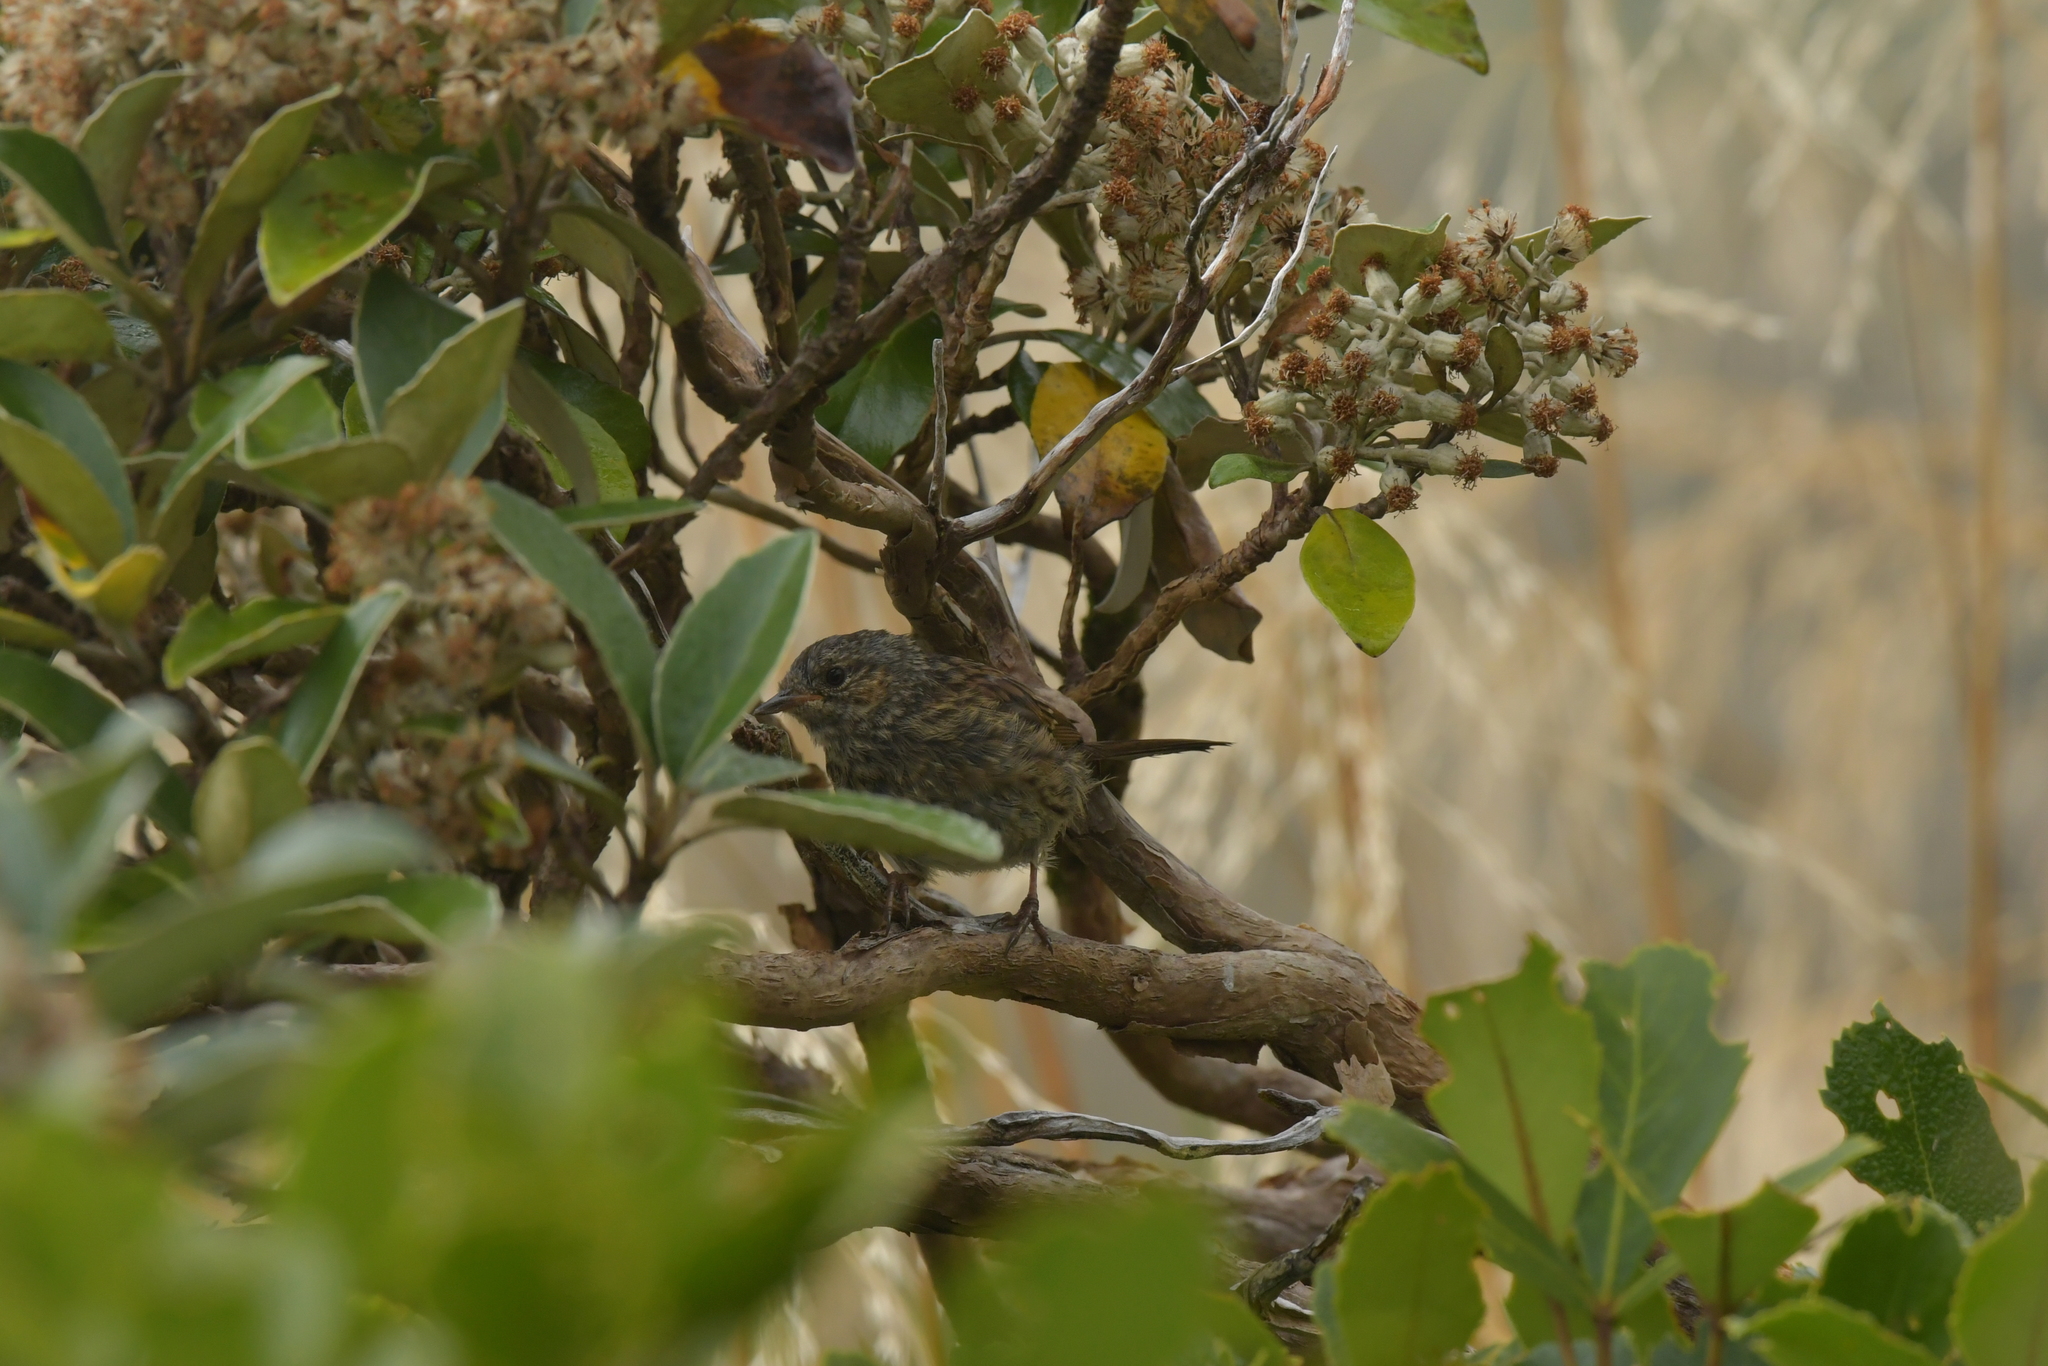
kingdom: Animalia
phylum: Chordata
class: Aves
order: Passeriformes
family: Prunellidae
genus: Prunella
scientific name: Prunella modularis
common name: Dunnock
